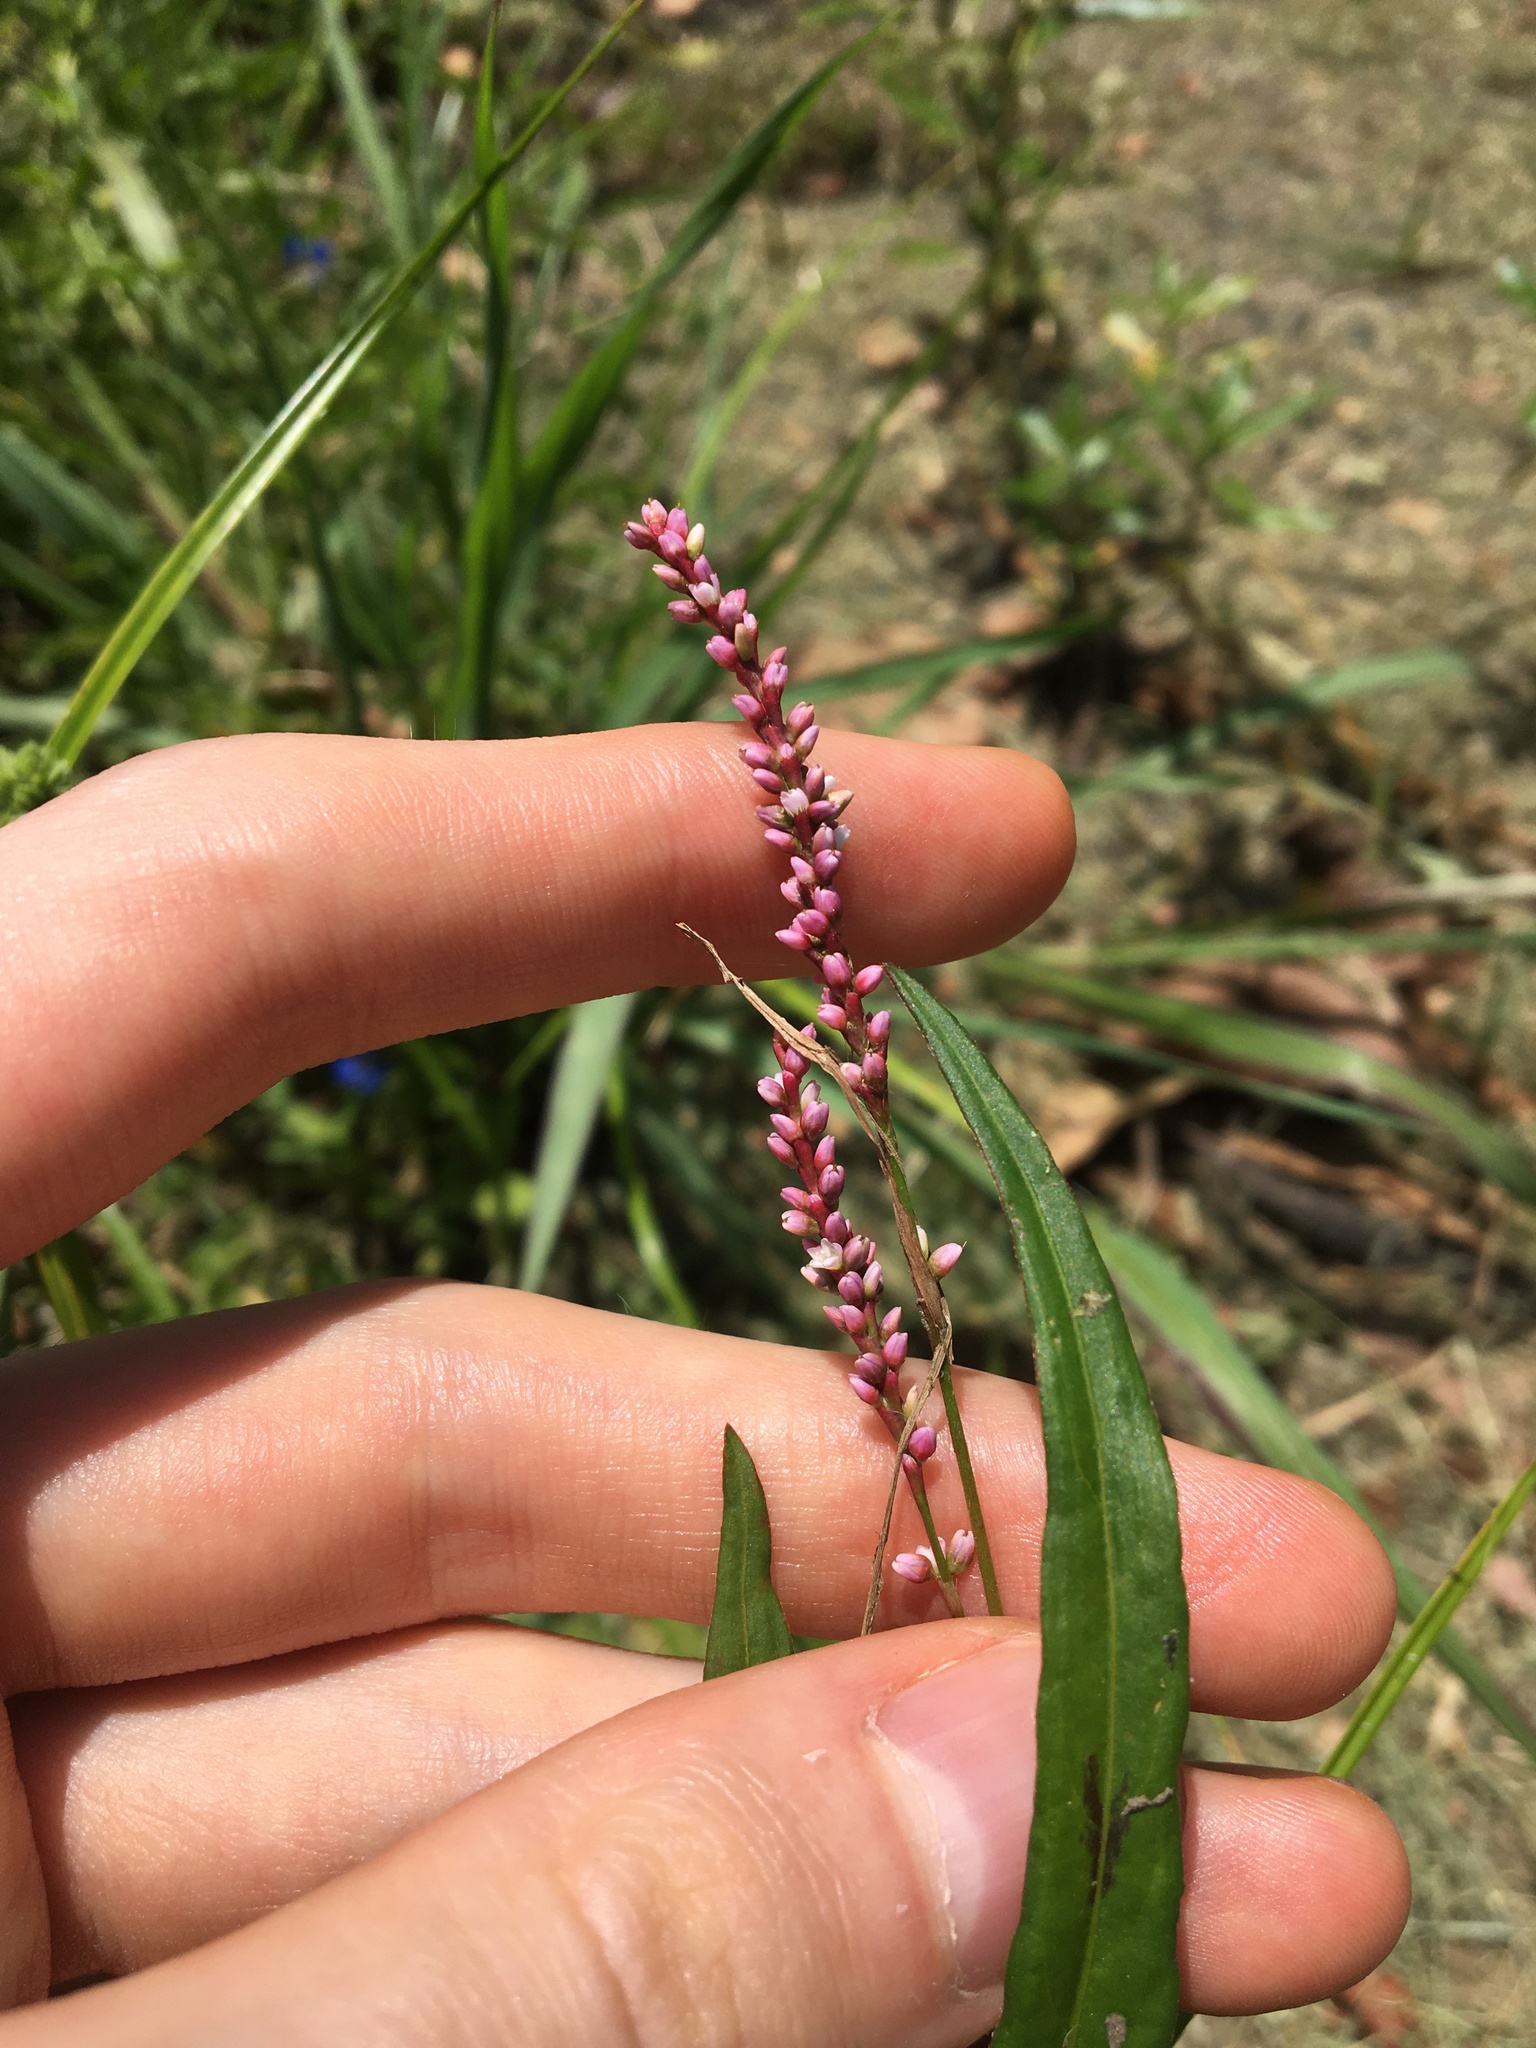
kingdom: Plantae
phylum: Tracheophyta
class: Magnoliopsida
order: Caryophyllales
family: Polygonaceae
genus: Persicaria
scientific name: Persicaria decipiens
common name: Willow-weed
